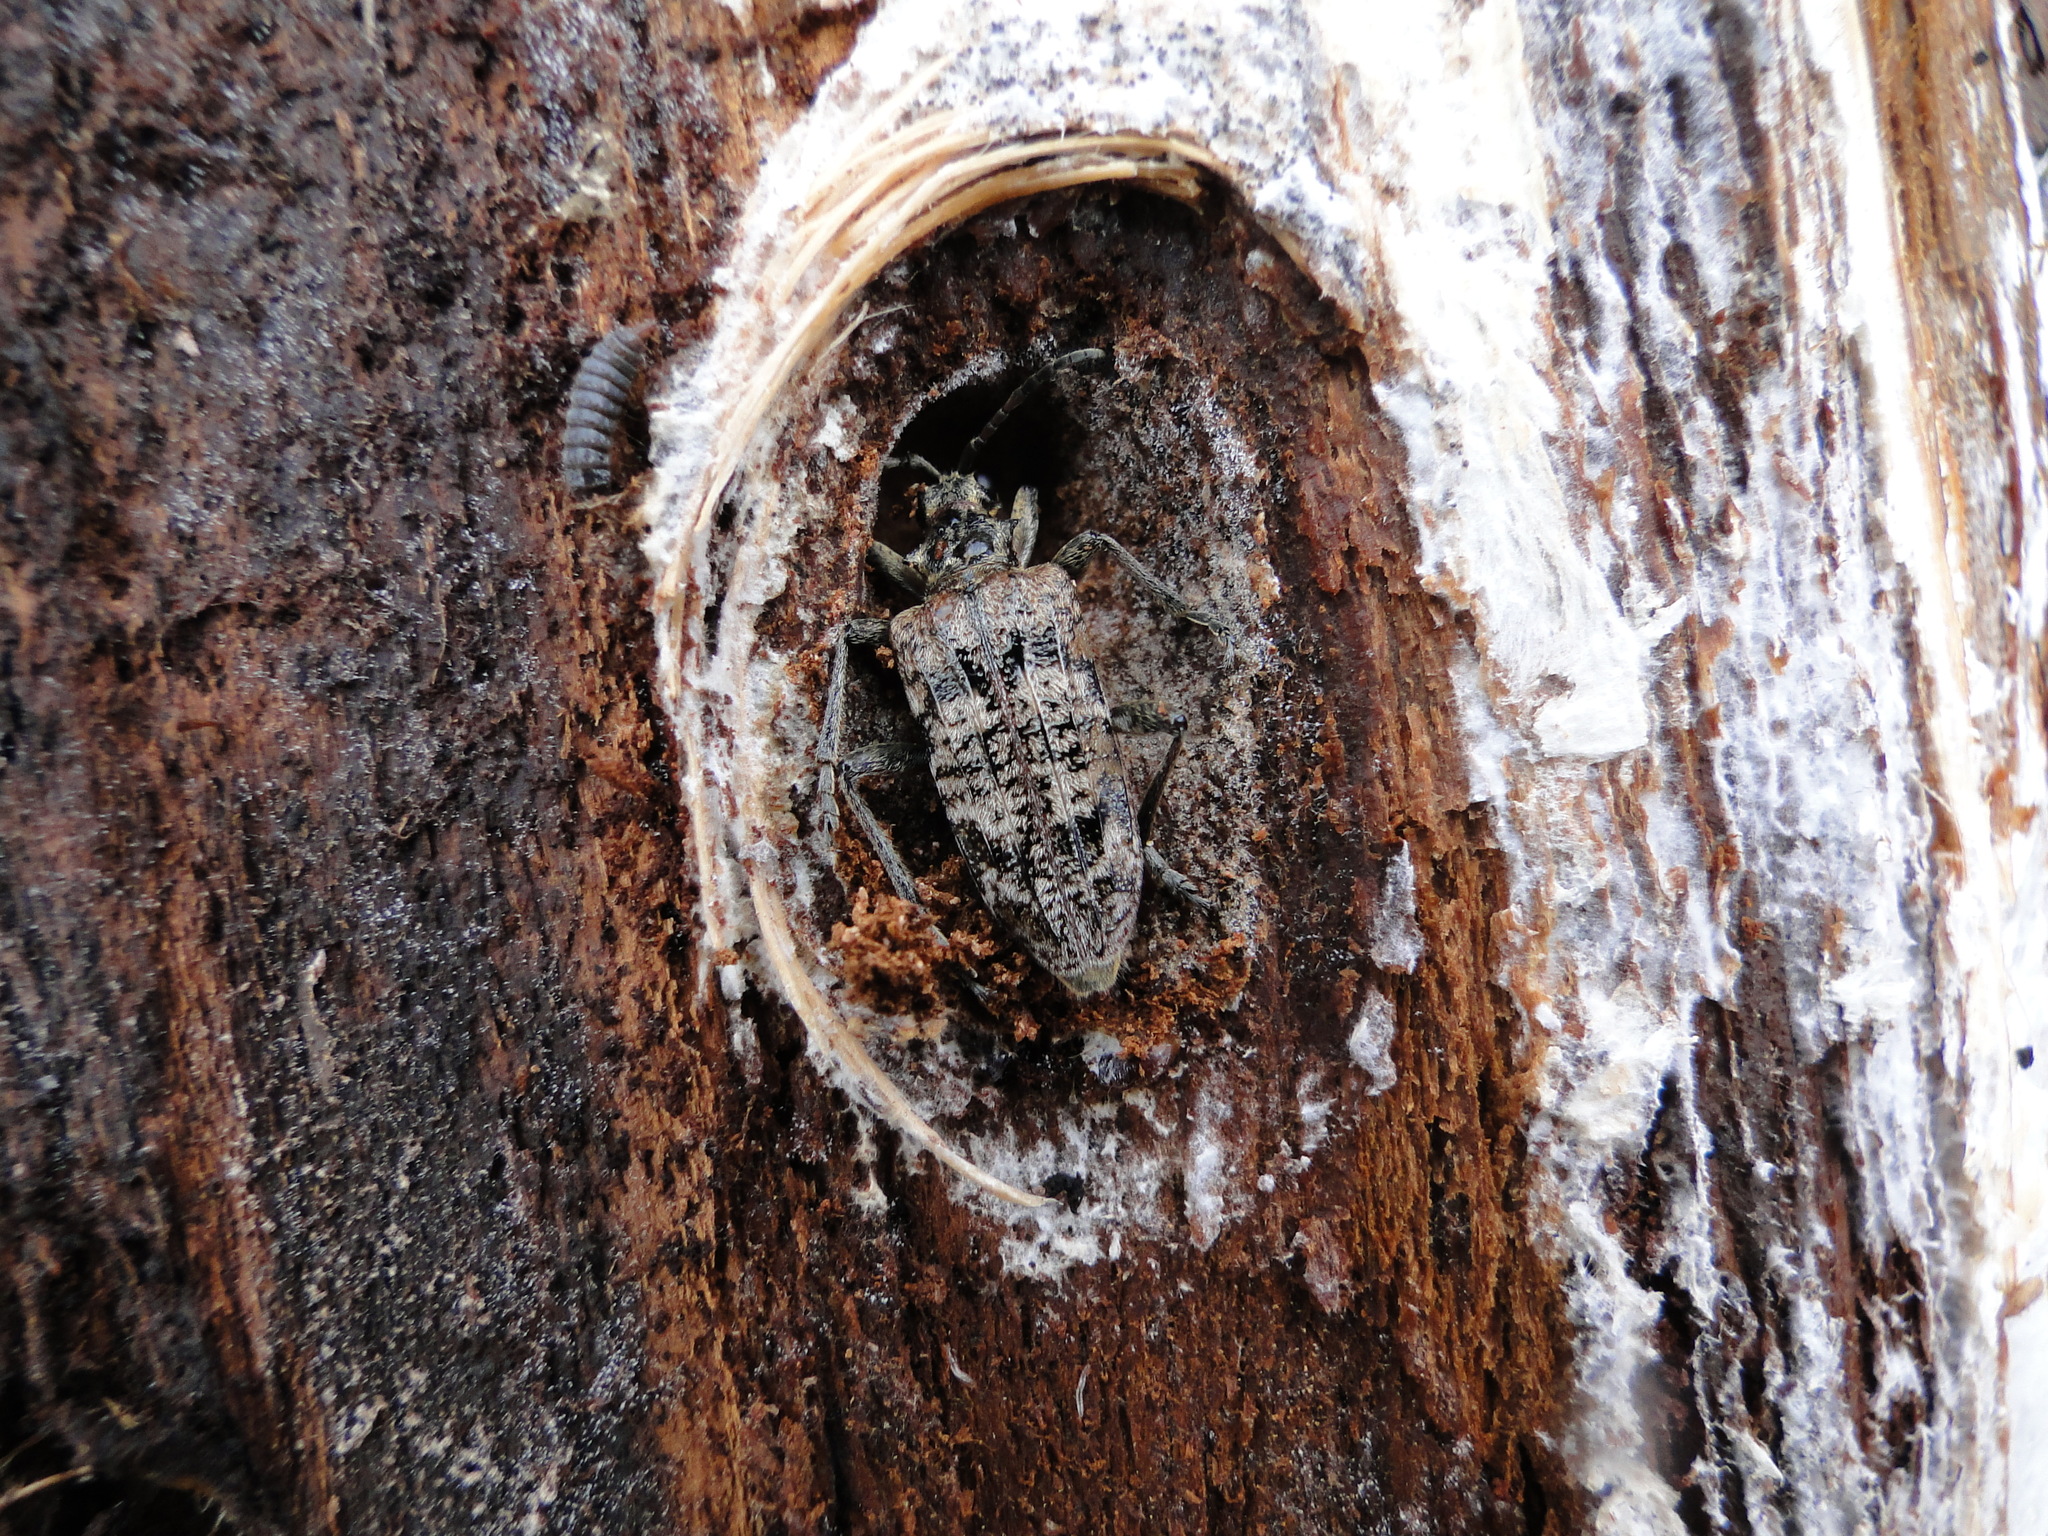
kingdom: Animalia
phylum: Arthropoda
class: Insecta
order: Coleoptera
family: Cerambycidae
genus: Rhagium
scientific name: Rhagium inquisitor
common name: Ribbed pine borer
